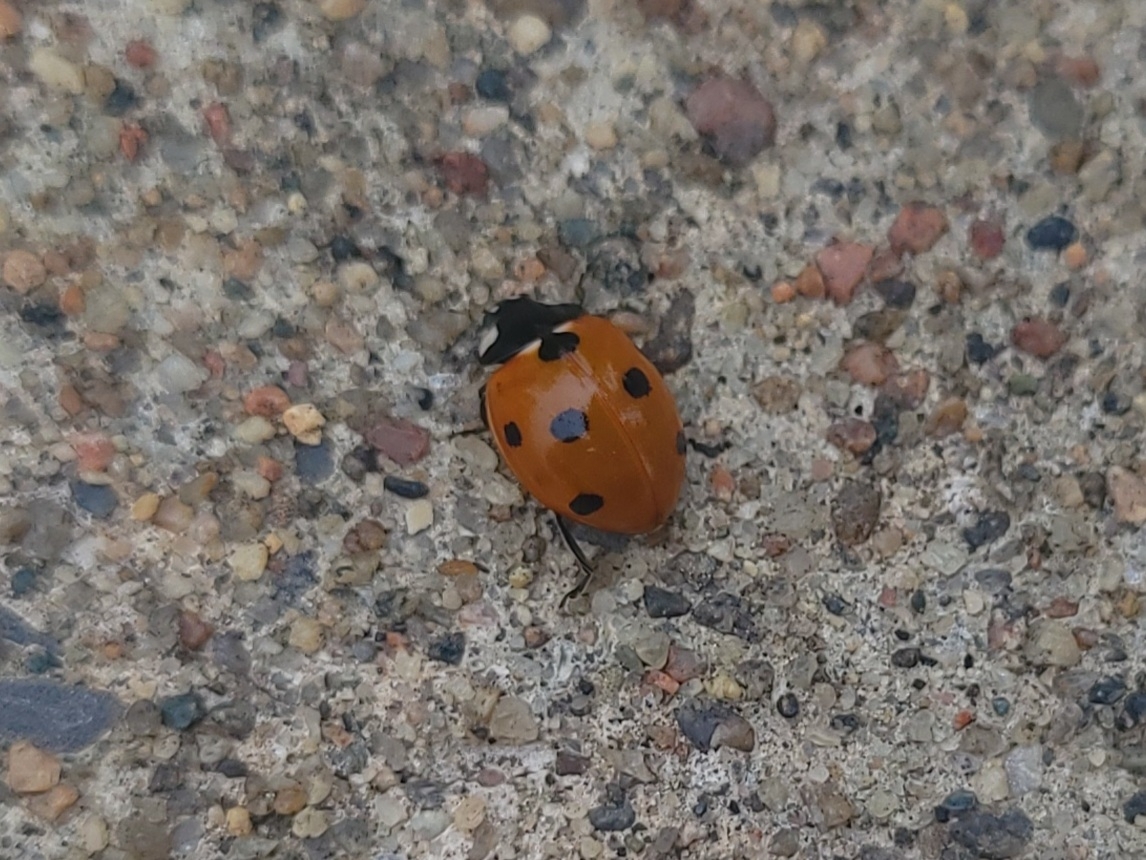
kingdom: Animalia
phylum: Arthropoda
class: Insecta
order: Coleoptera
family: Coccinellidae
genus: Coccinella
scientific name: Coccinella septempunctata
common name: Sevenspotted lady beetle
